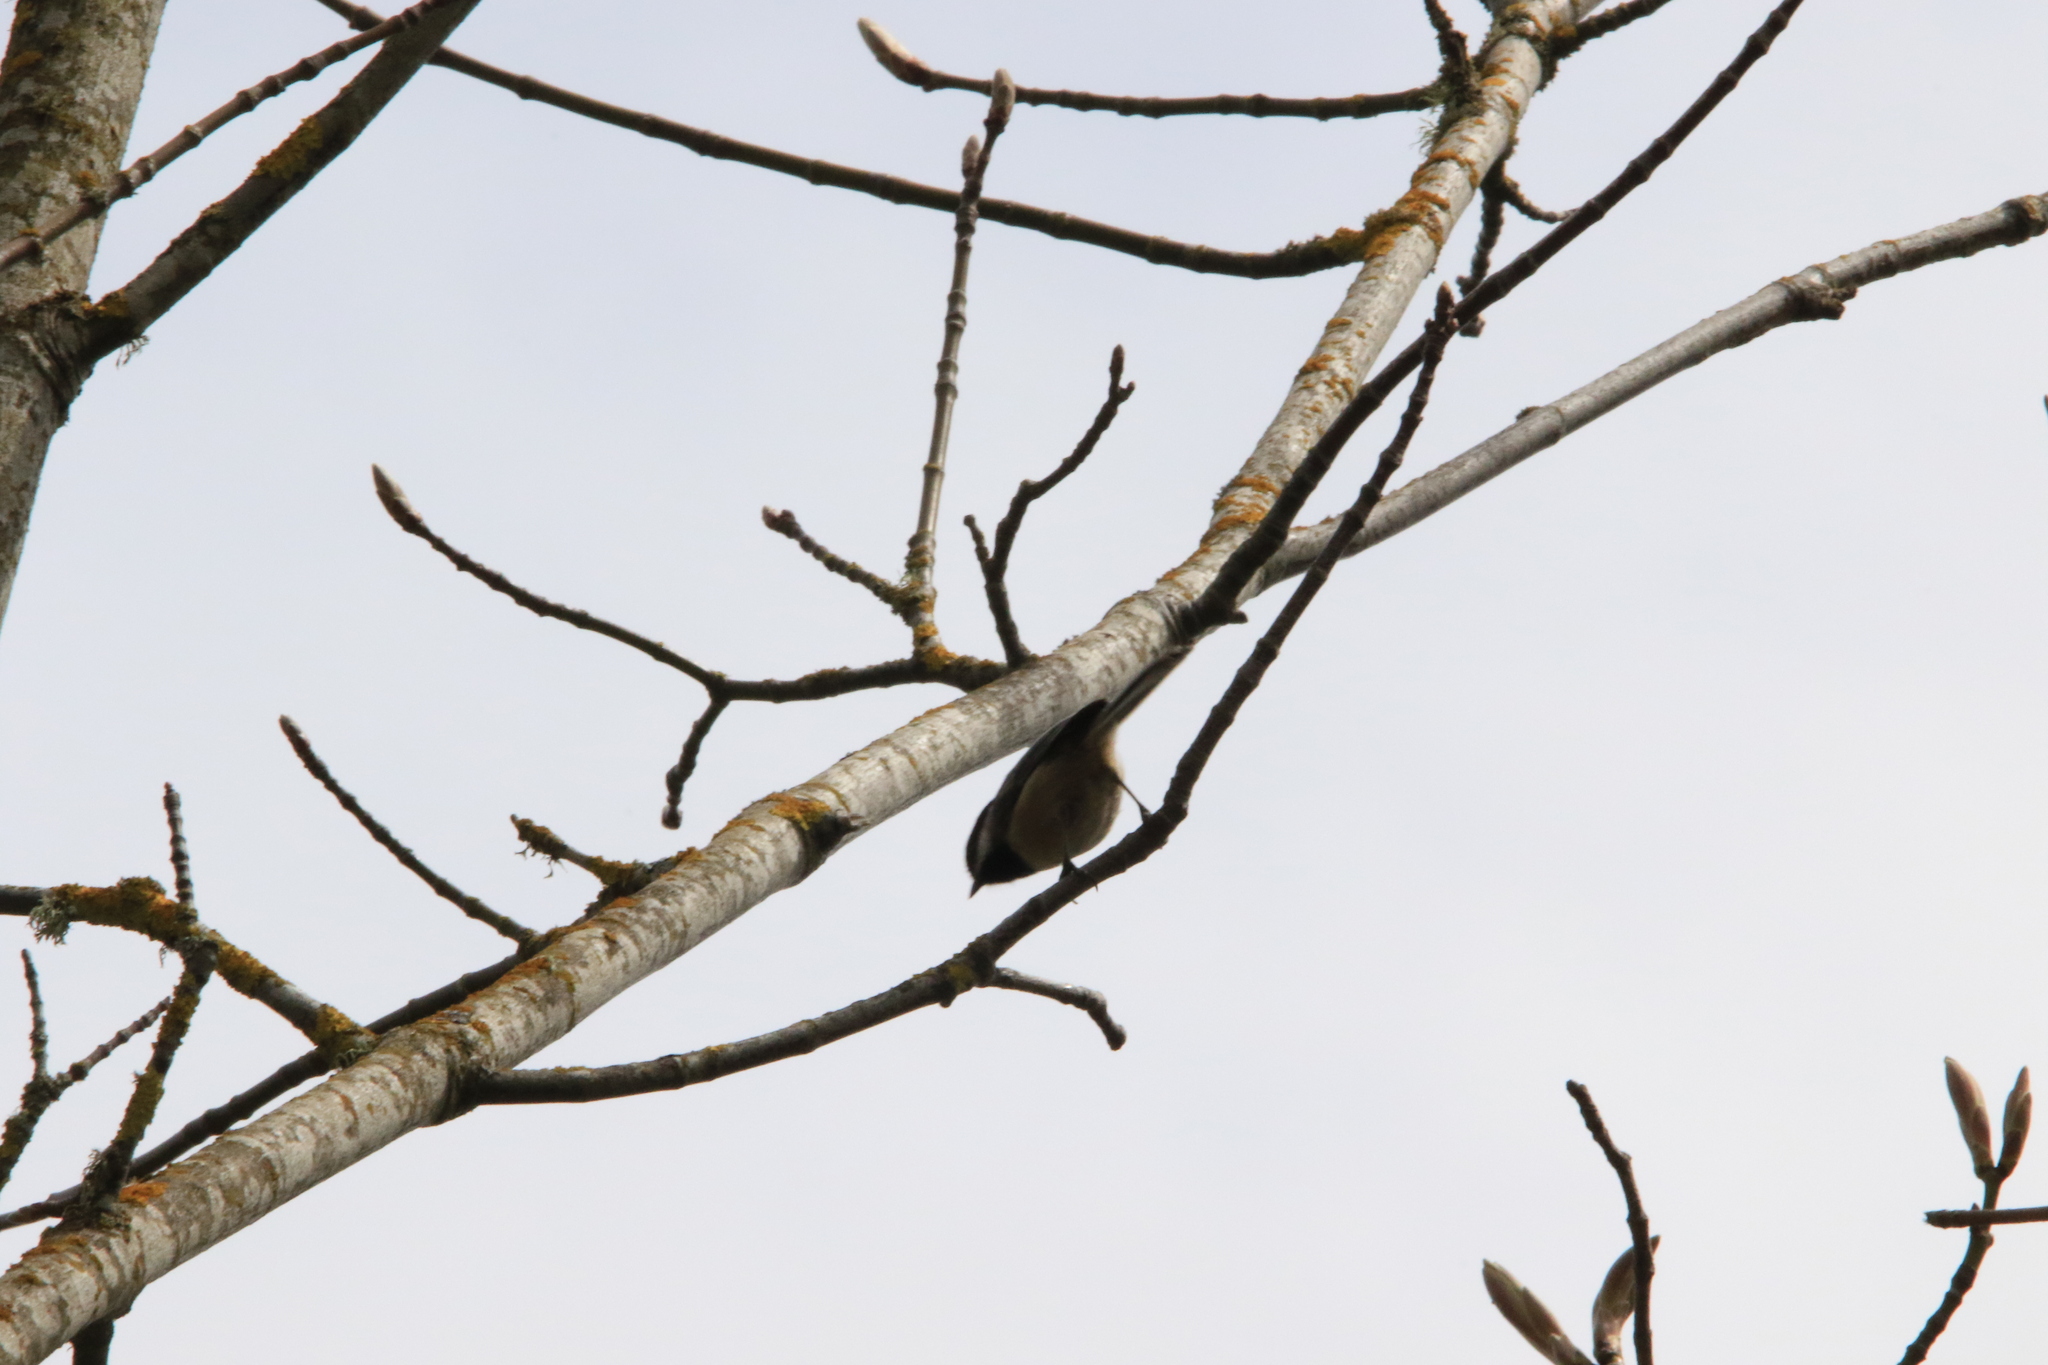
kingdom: Animalia
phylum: Chordata
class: Aves
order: Passeriformes
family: Paridae
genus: Poecile
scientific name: Poecile atricapillus
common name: Black-capped chickadee
